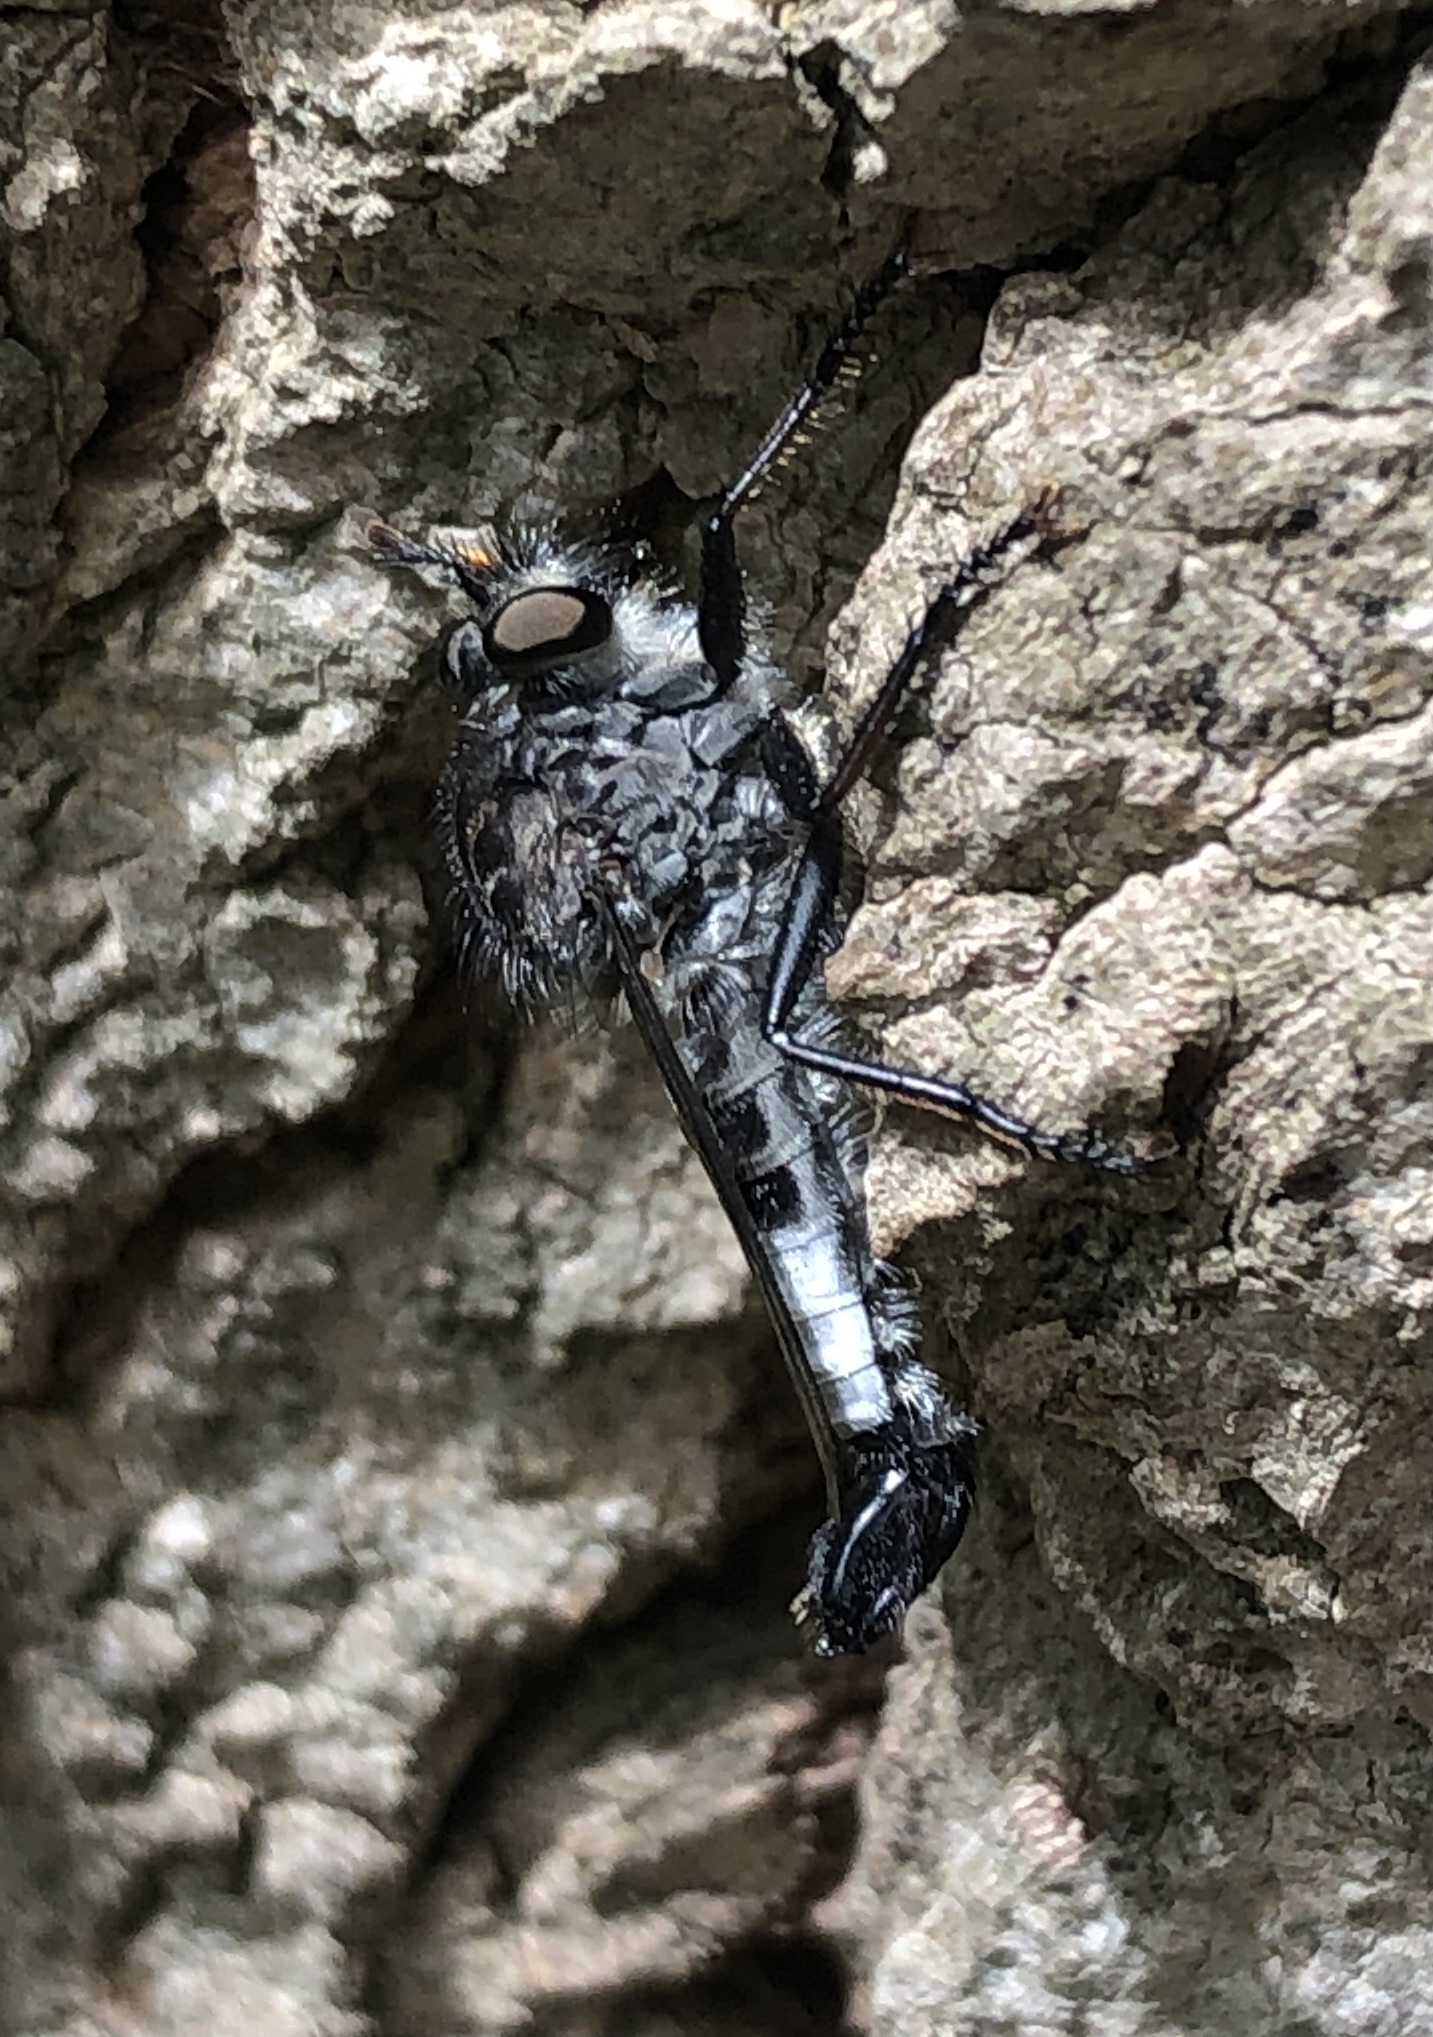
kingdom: Animalia
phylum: Arthropoda
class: Insecta
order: Diptera
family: Asilidae
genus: Efferia
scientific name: Efferia aestuans
